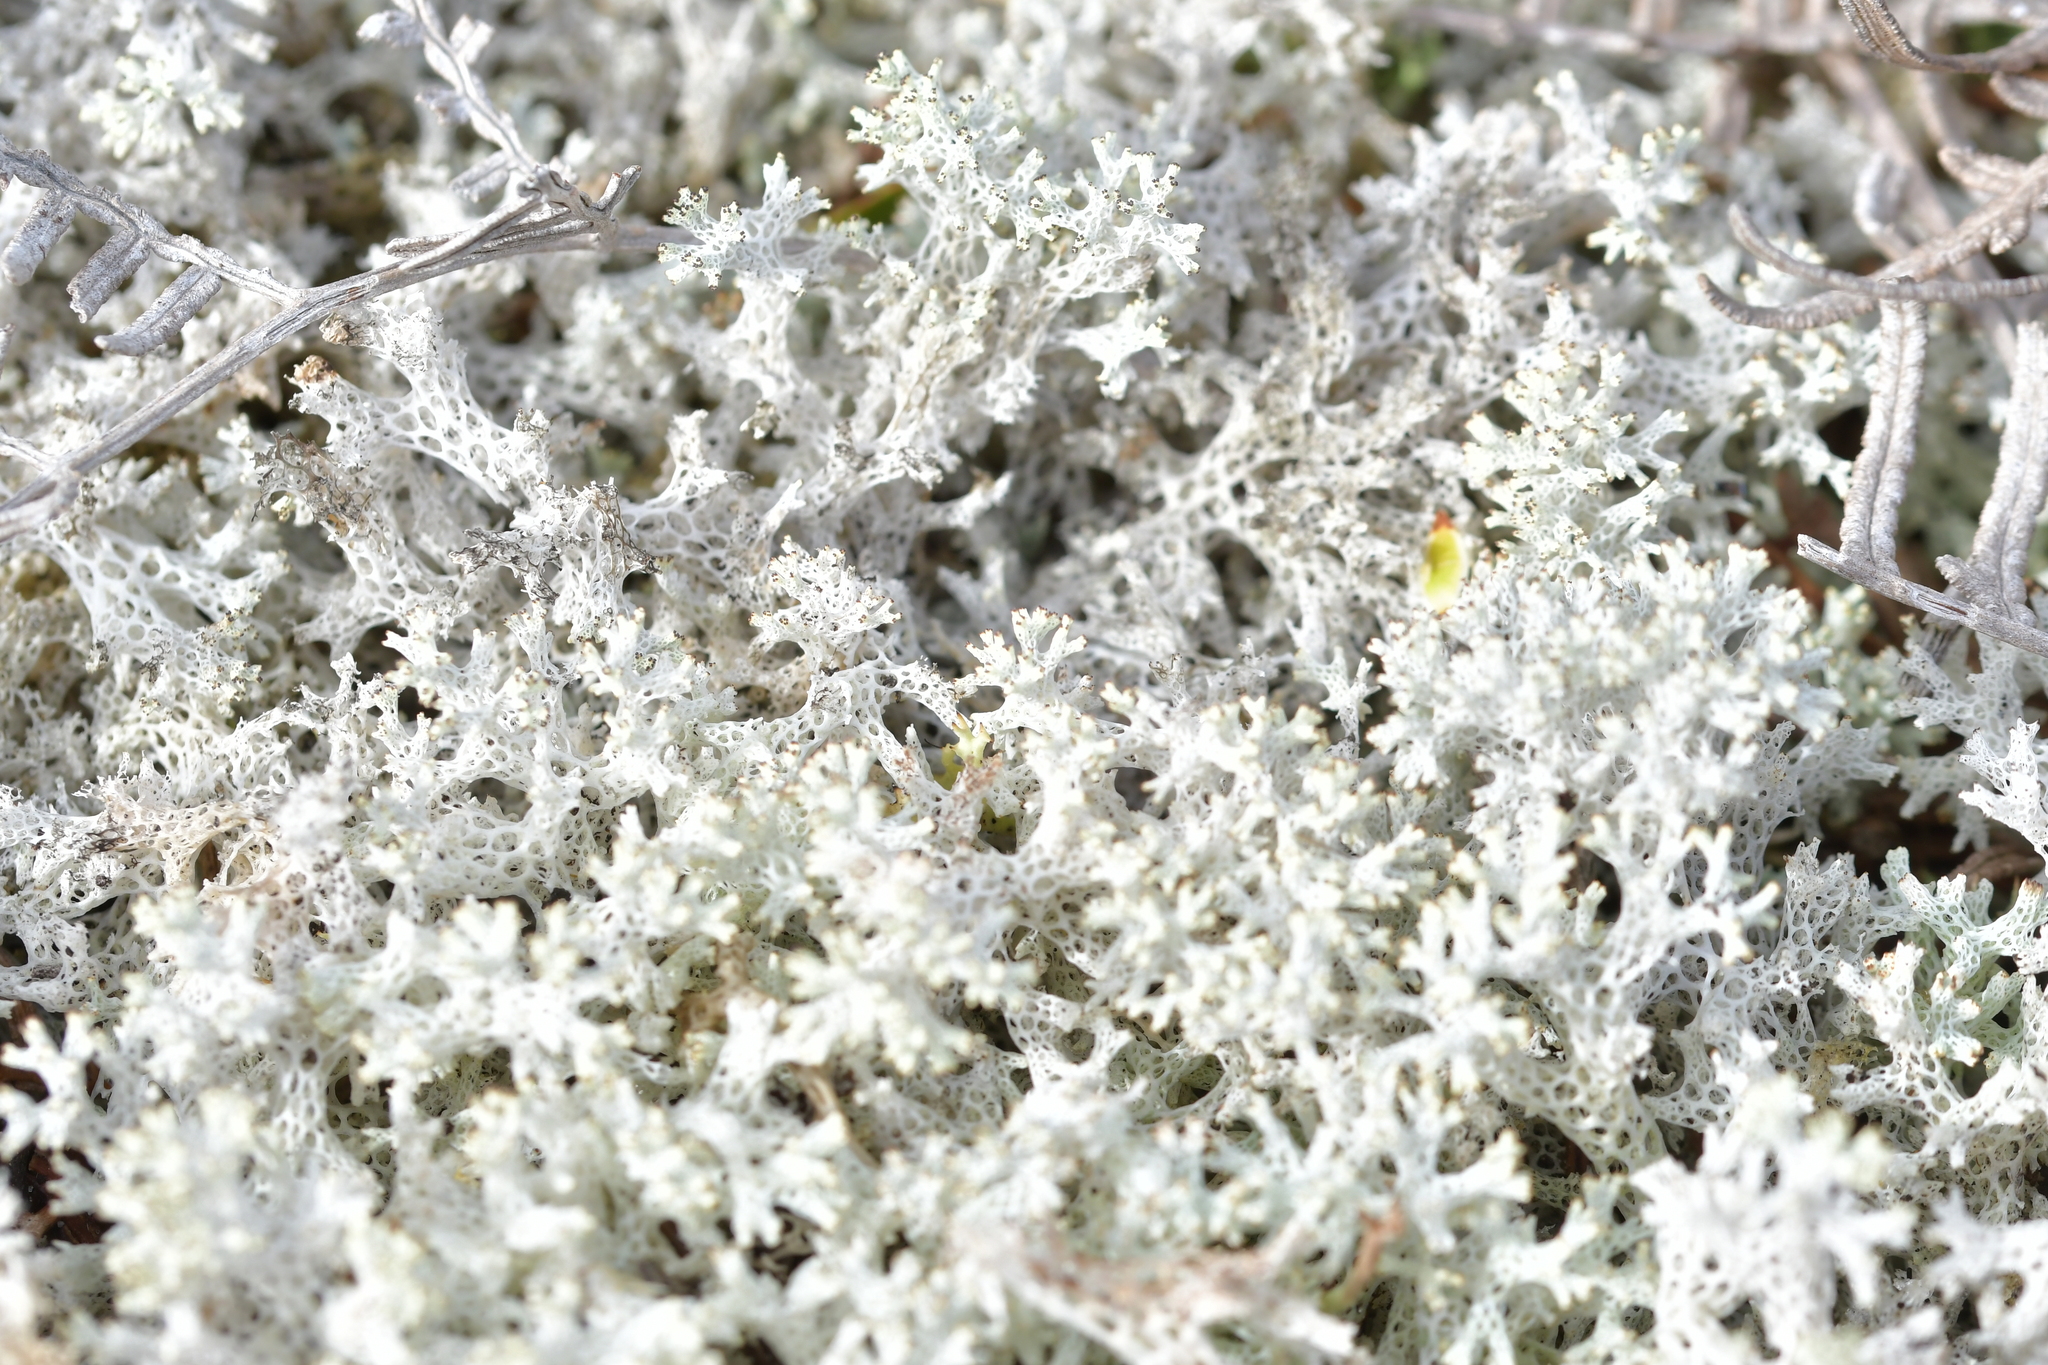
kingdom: Fungi
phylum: Ascomycota
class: Lecanoromycetes
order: Lecanorales
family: Cladoniaceae
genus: Pulchrocladia
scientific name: Pulchrocladia retipora
